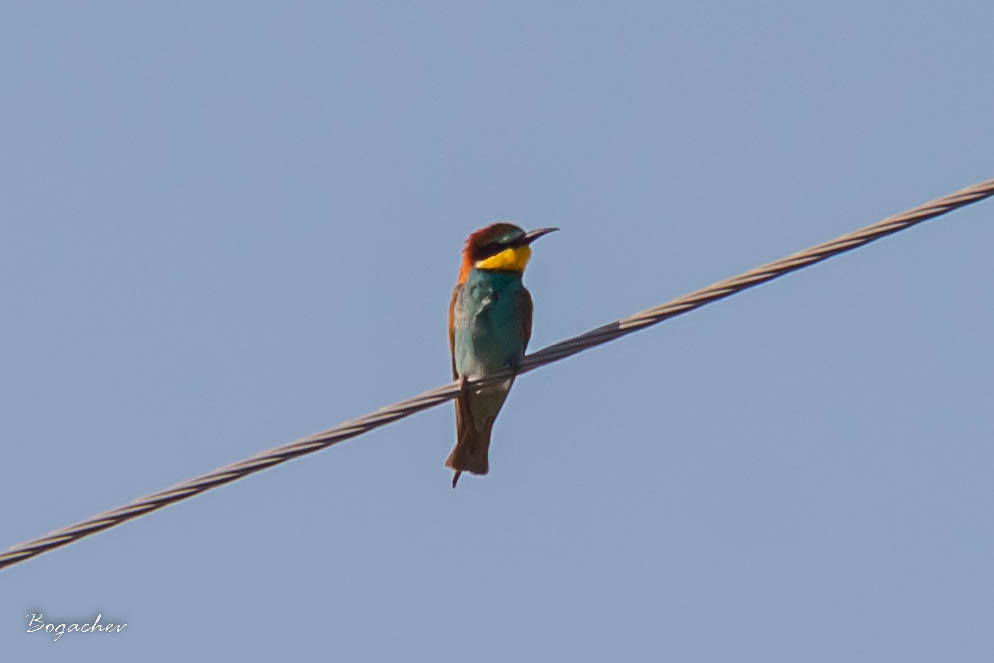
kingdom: Animalia
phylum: Chordata
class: Aves
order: Coraciiformes
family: Meropidae
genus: Merops
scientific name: Merops apiaster
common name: European bee-eater
